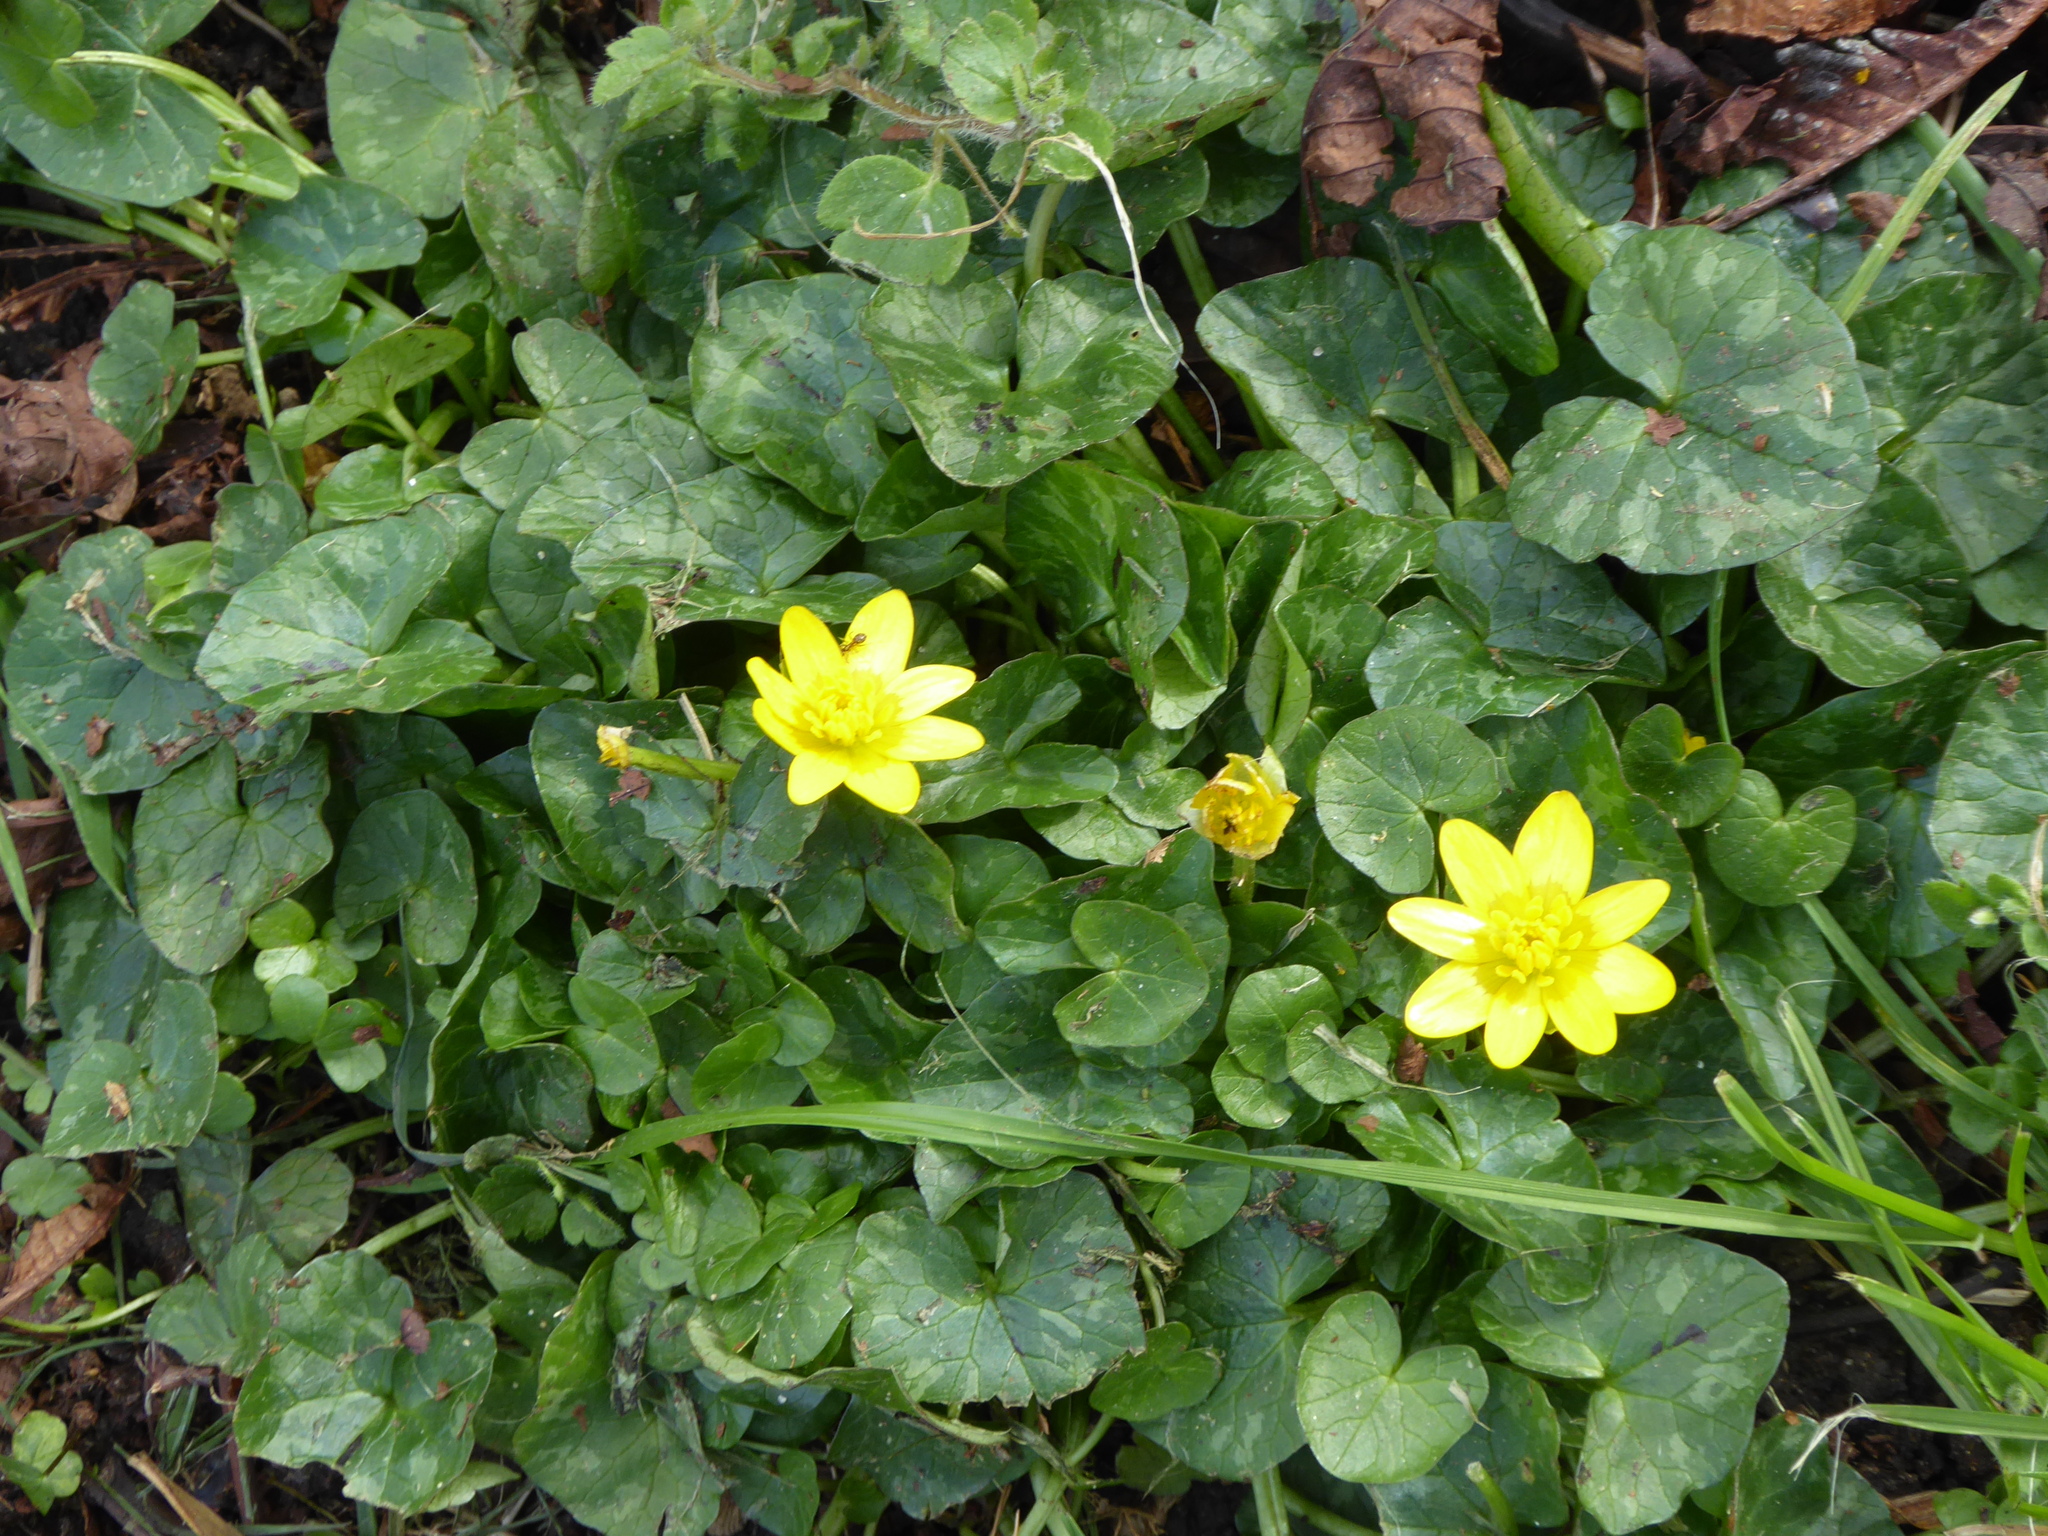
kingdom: Plantae
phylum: Tracheophyta
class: Magnoliopsida
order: Ranunculales
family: Ranunculaceae
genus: Ficaria
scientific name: Ficaria verna
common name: Lesser celandine
